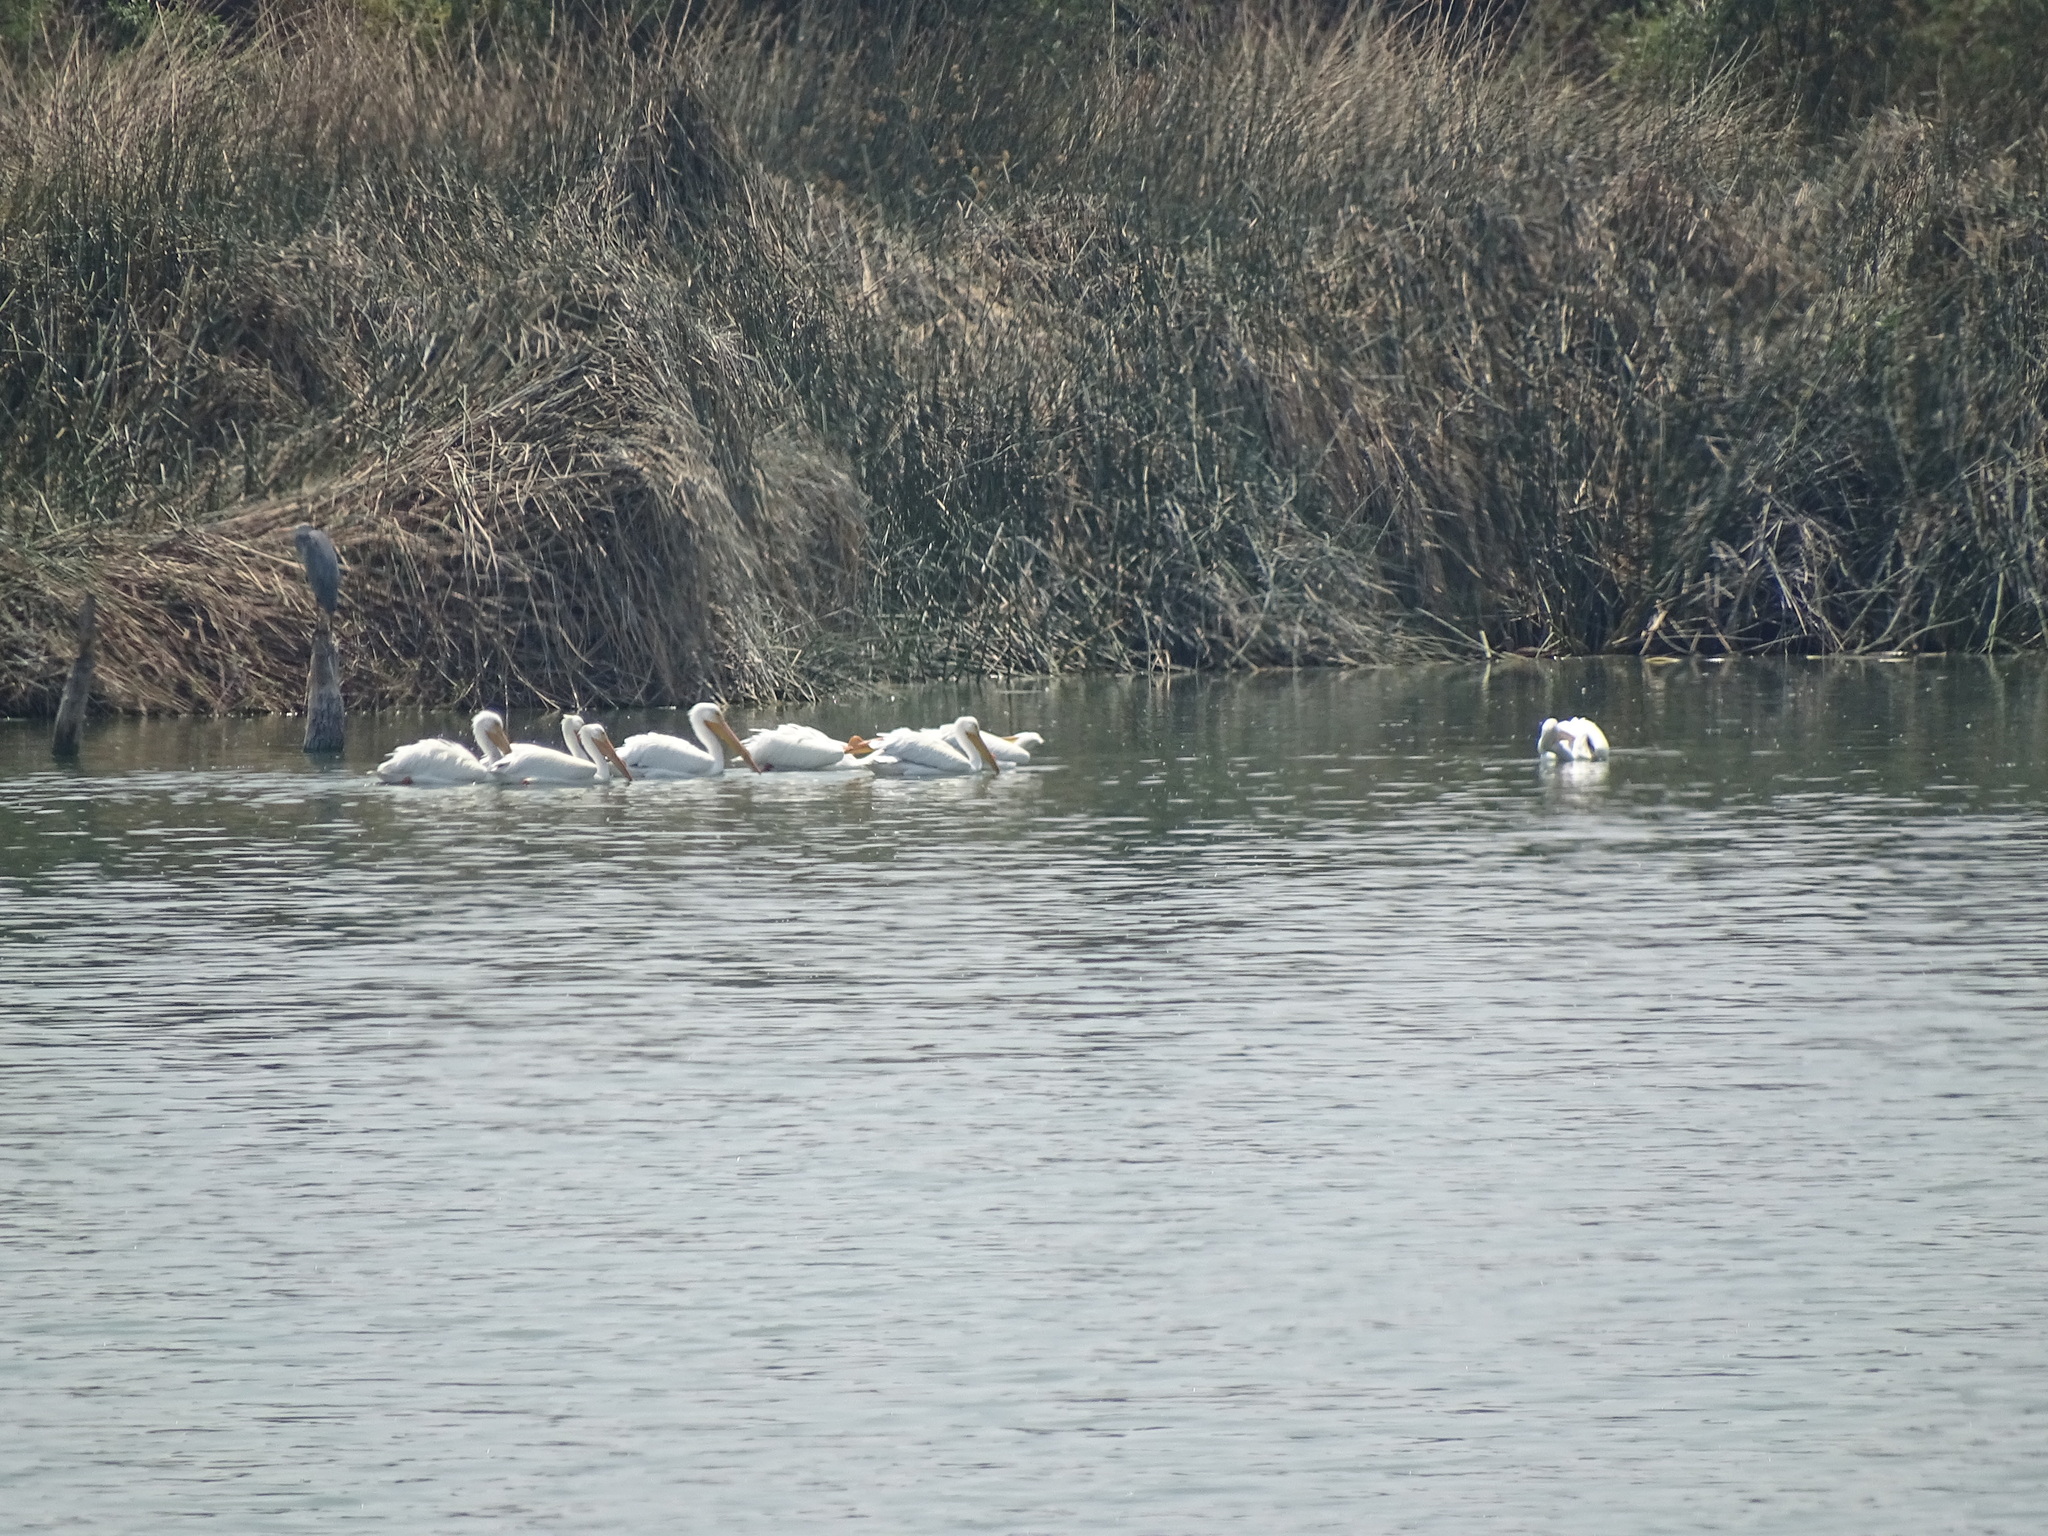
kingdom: Animalia
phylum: Chordata
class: Aves
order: Pelecaniformes
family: Pelecanidae
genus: Pelecanus
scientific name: Pelecanus erythrorhynchos
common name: American white pelican
